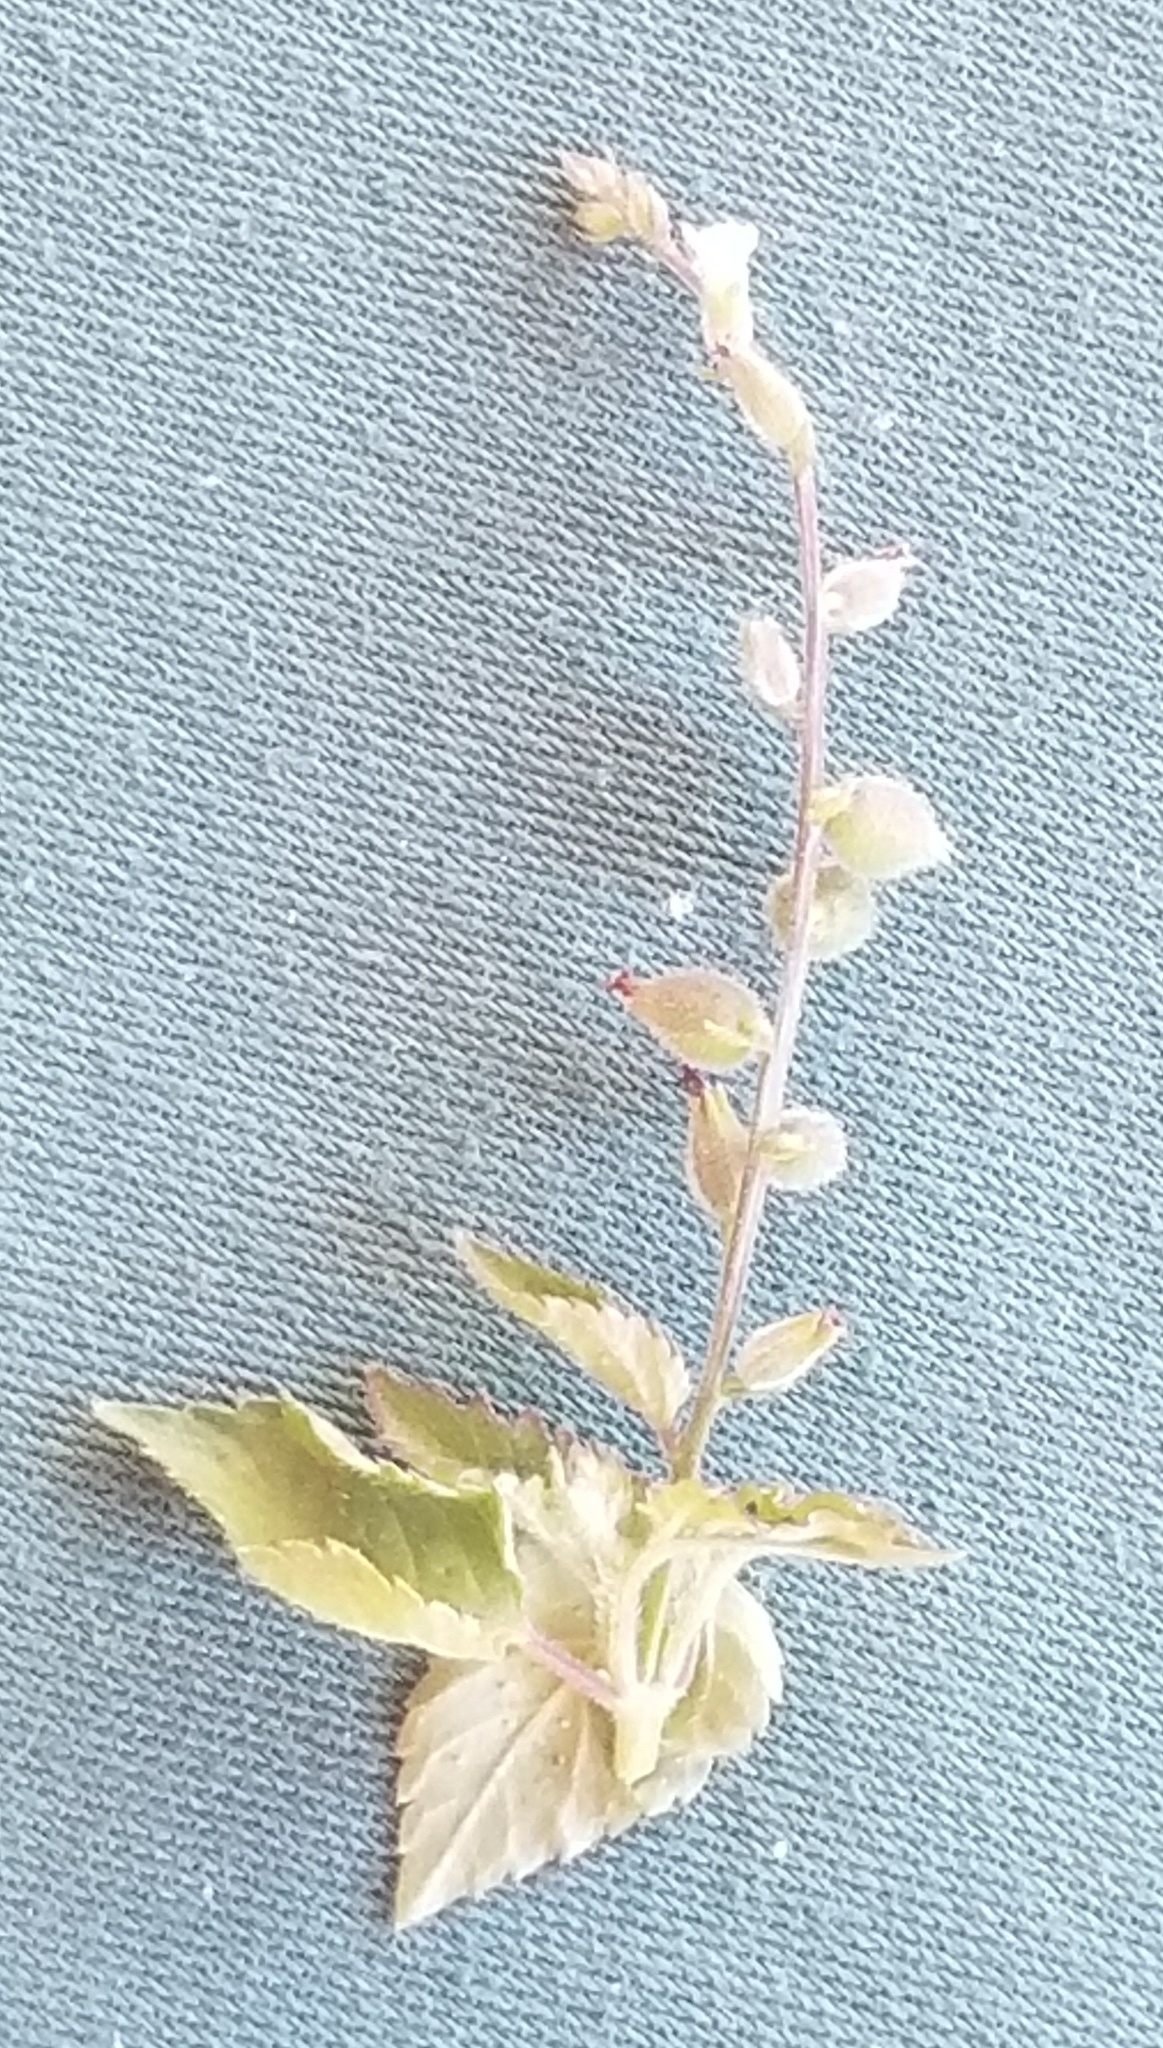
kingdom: Plantae
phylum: Tracheophyta
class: Magnoliopsida
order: Lamiales
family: Verbenaceae
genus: Priva
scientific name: Priva lappulacea
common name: Fasten-'pon-coat
